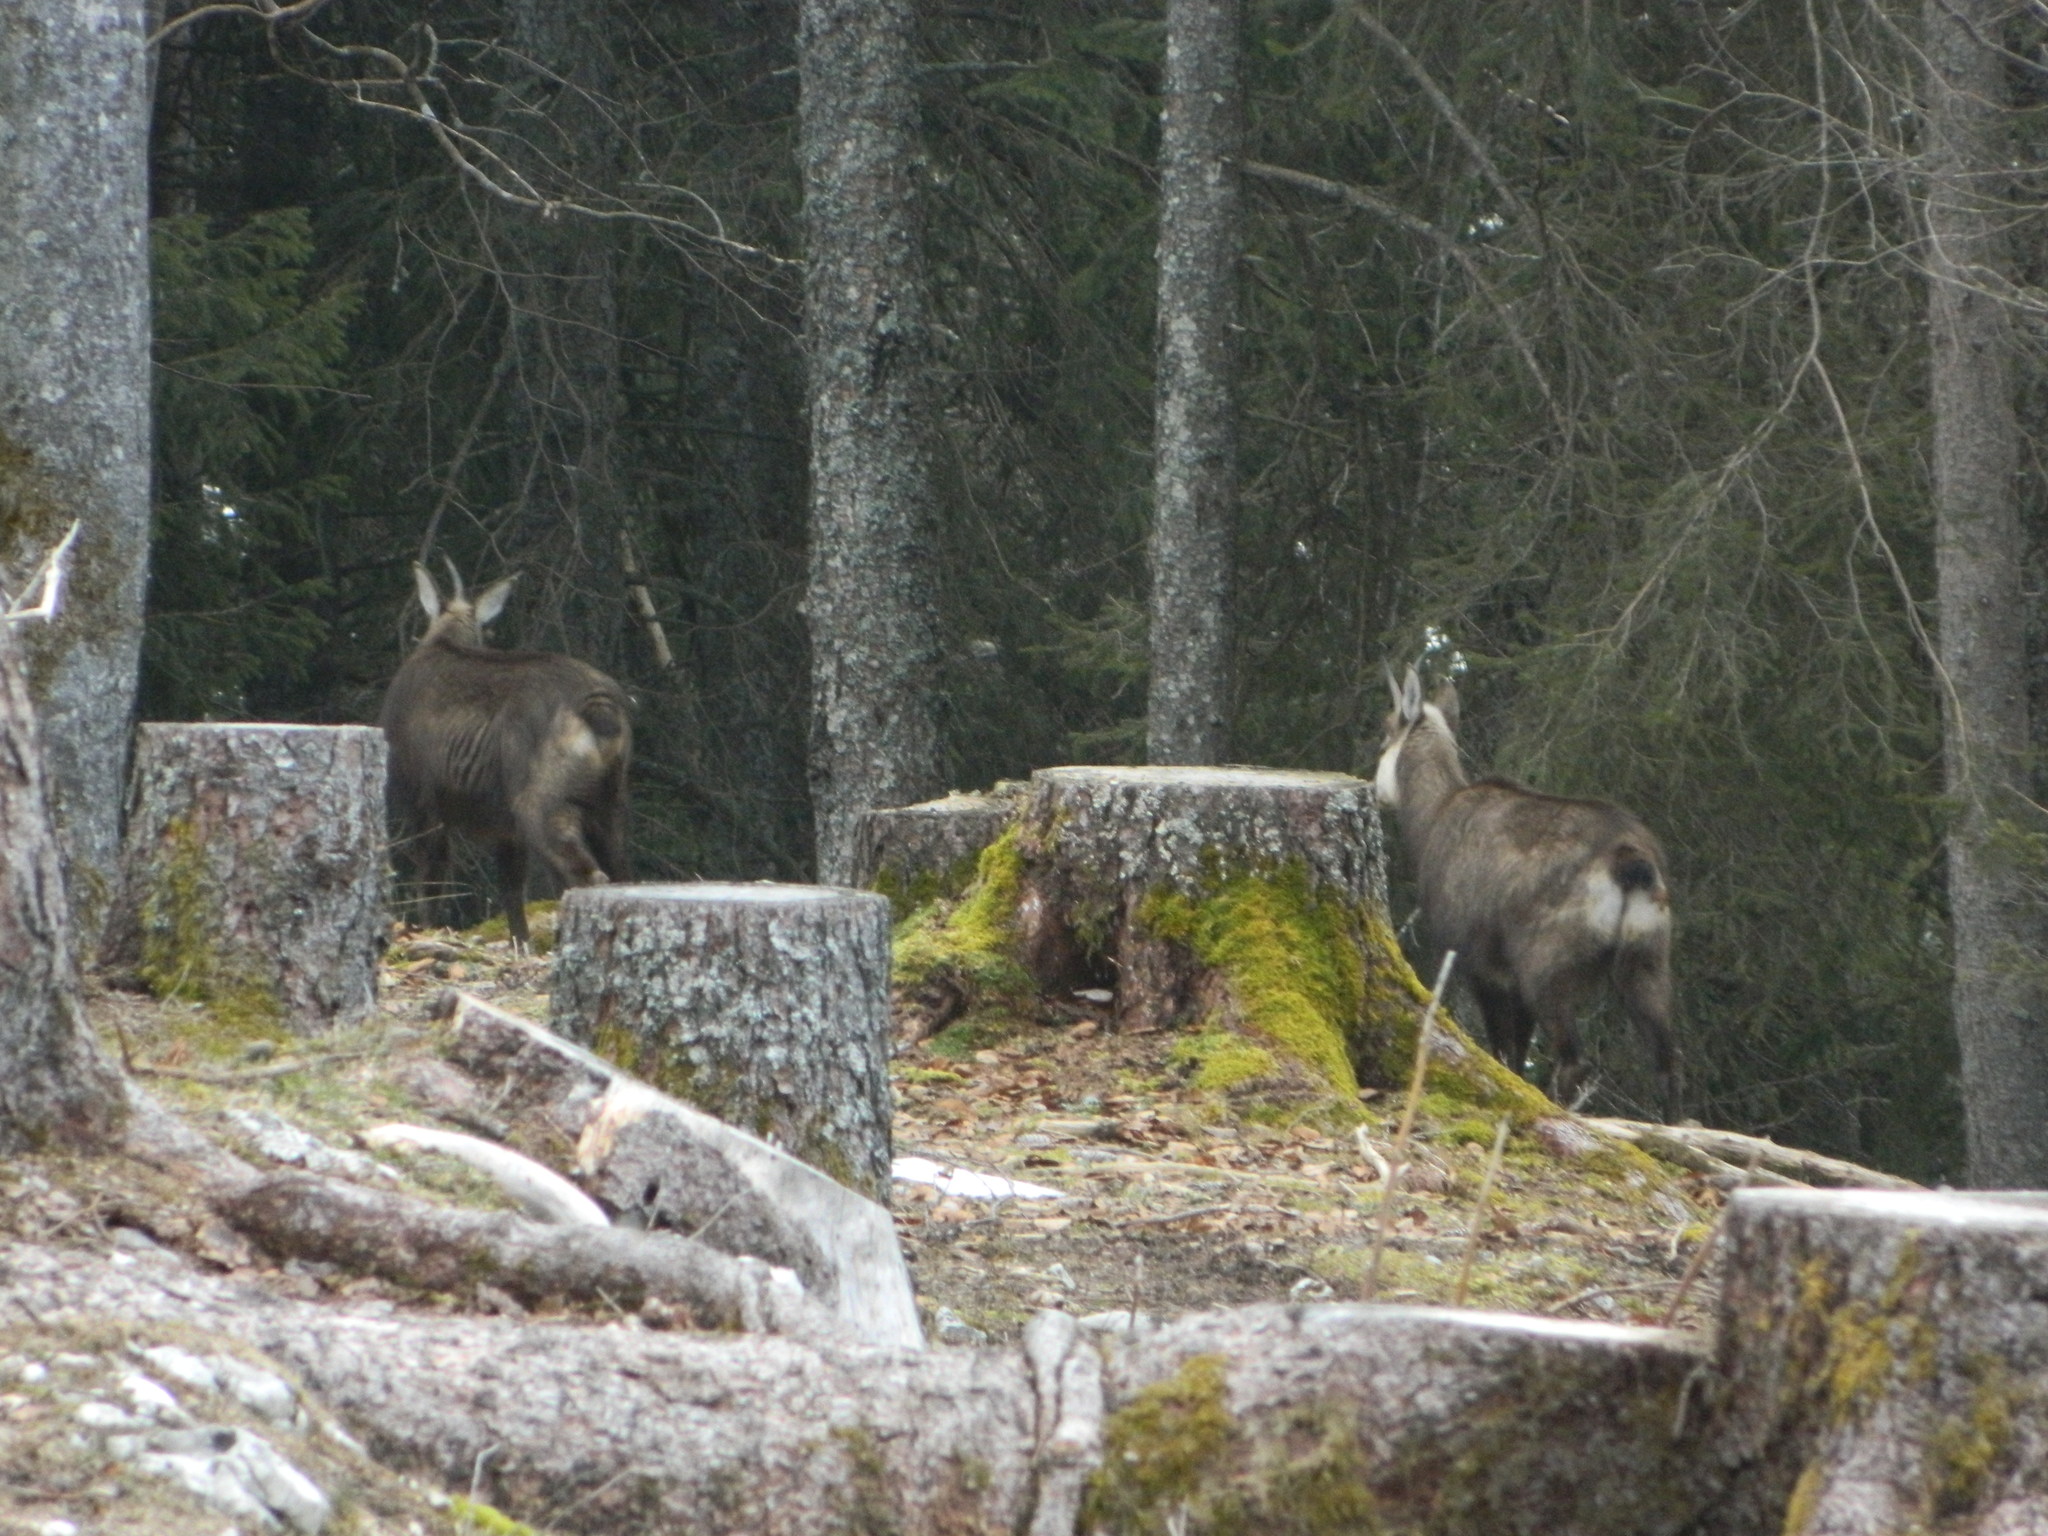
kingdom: Animalia
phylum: Chordata
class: Mammalia
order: Artiodactyla
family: Bovidae
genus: Rupicapra
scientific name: Rupicapra rupicapra
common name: Chamois
